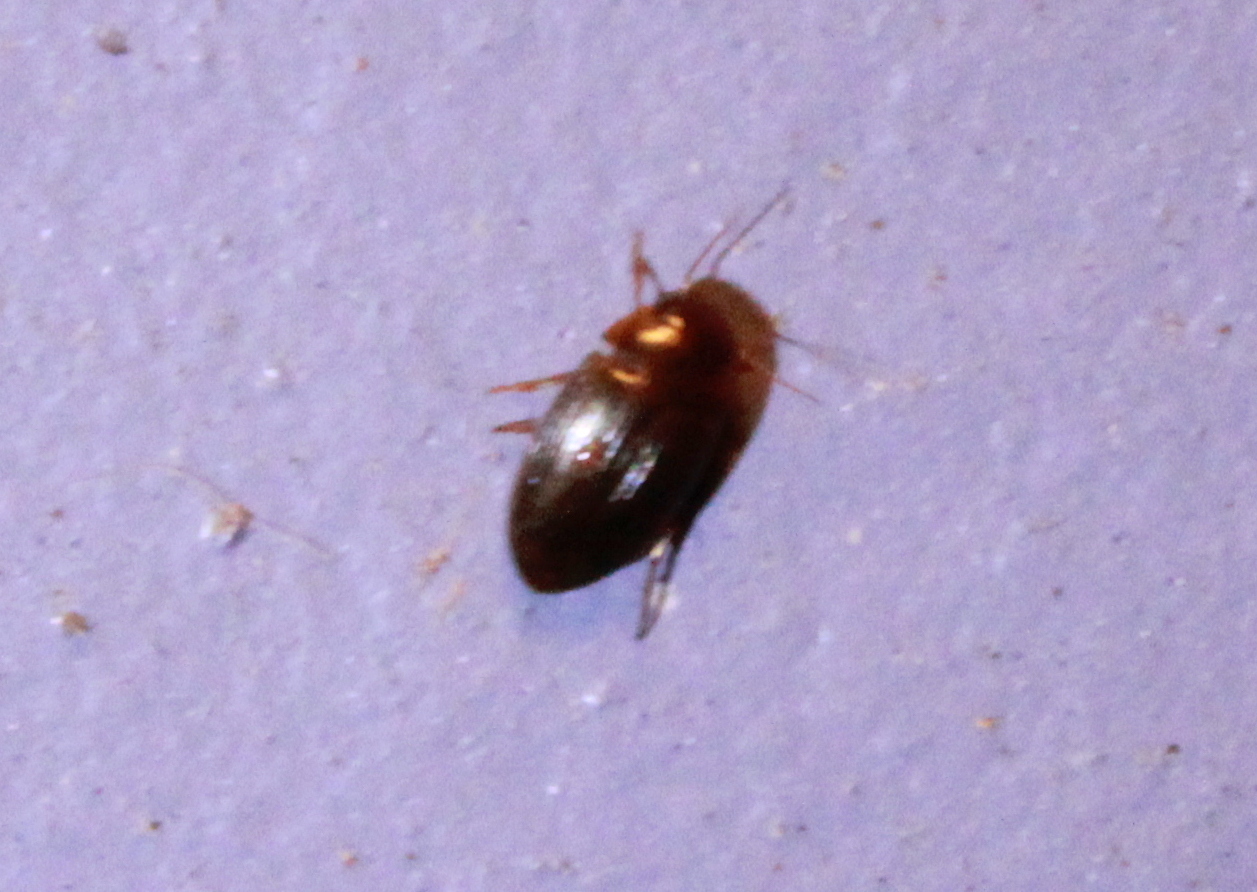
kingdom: Animalia
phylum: Arthropoda
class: Insecta
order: Coleoptera
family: Dytiscidae
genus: Copelatus
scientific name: Copelatus glyphicus
